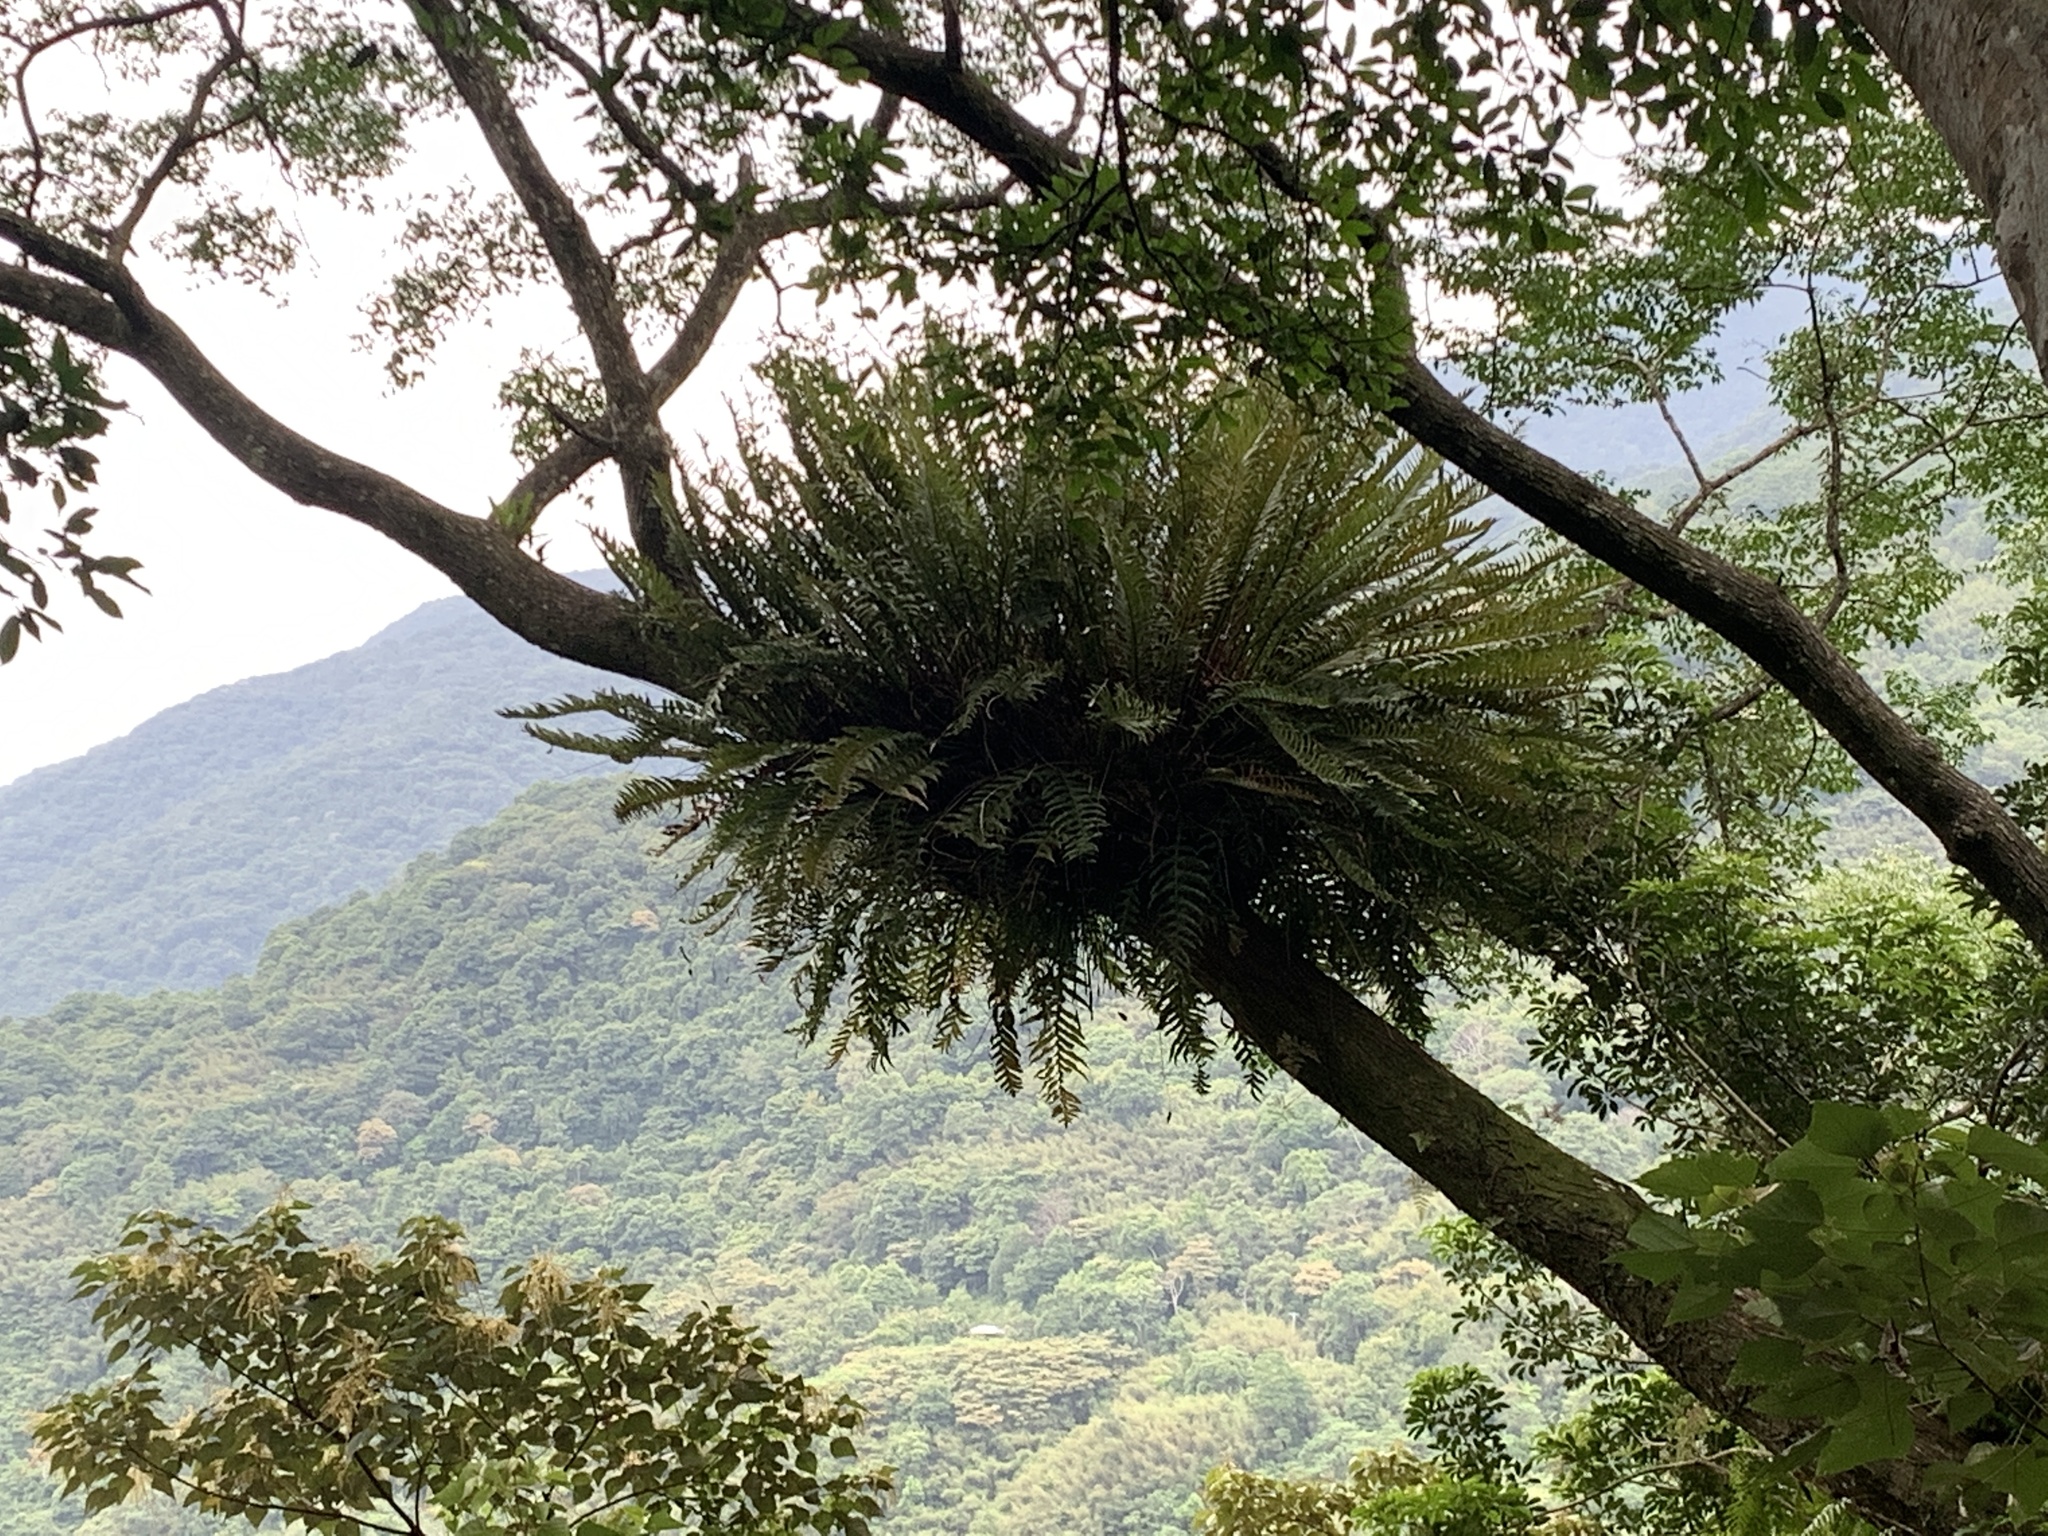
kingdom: Plantae
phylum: Tracheophyta
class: Polypodiopsida
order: Polypodiales
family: Polypodiaceae
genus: Drynaria
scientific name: Drynaria coronans
